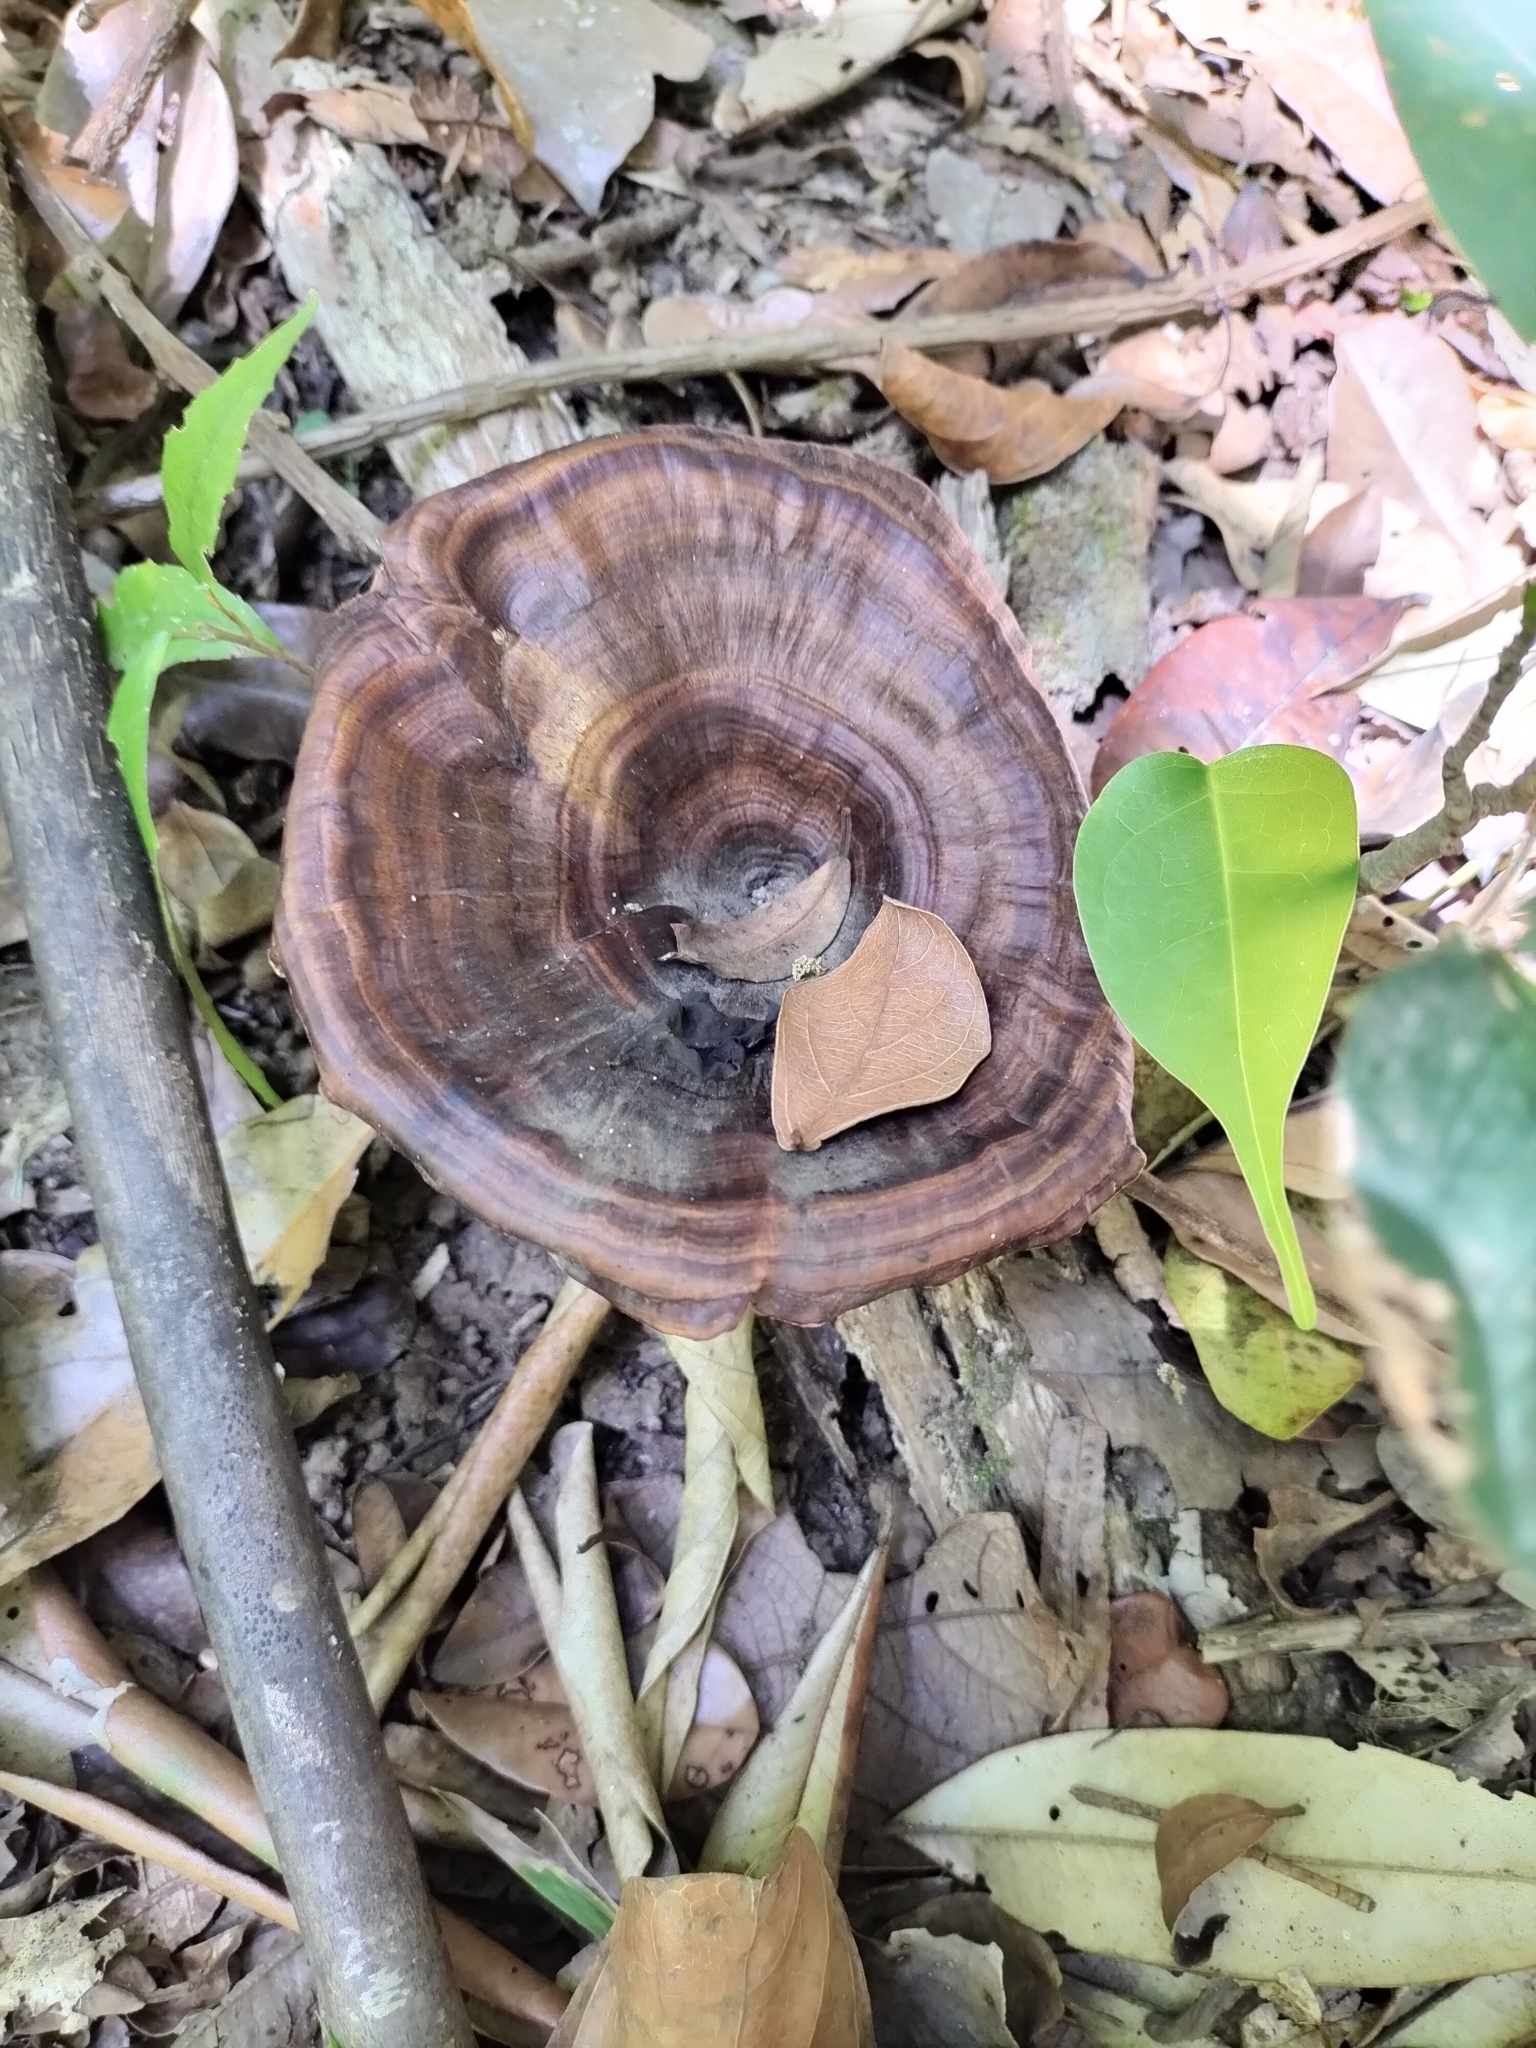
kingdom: Fungi
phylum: Basidiomycota
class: Agaricomycetes
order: Polyporales
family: Polyporaceae
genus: Microporus
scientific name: Microporus xanthopus
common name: Yellow-stemmed micropore
